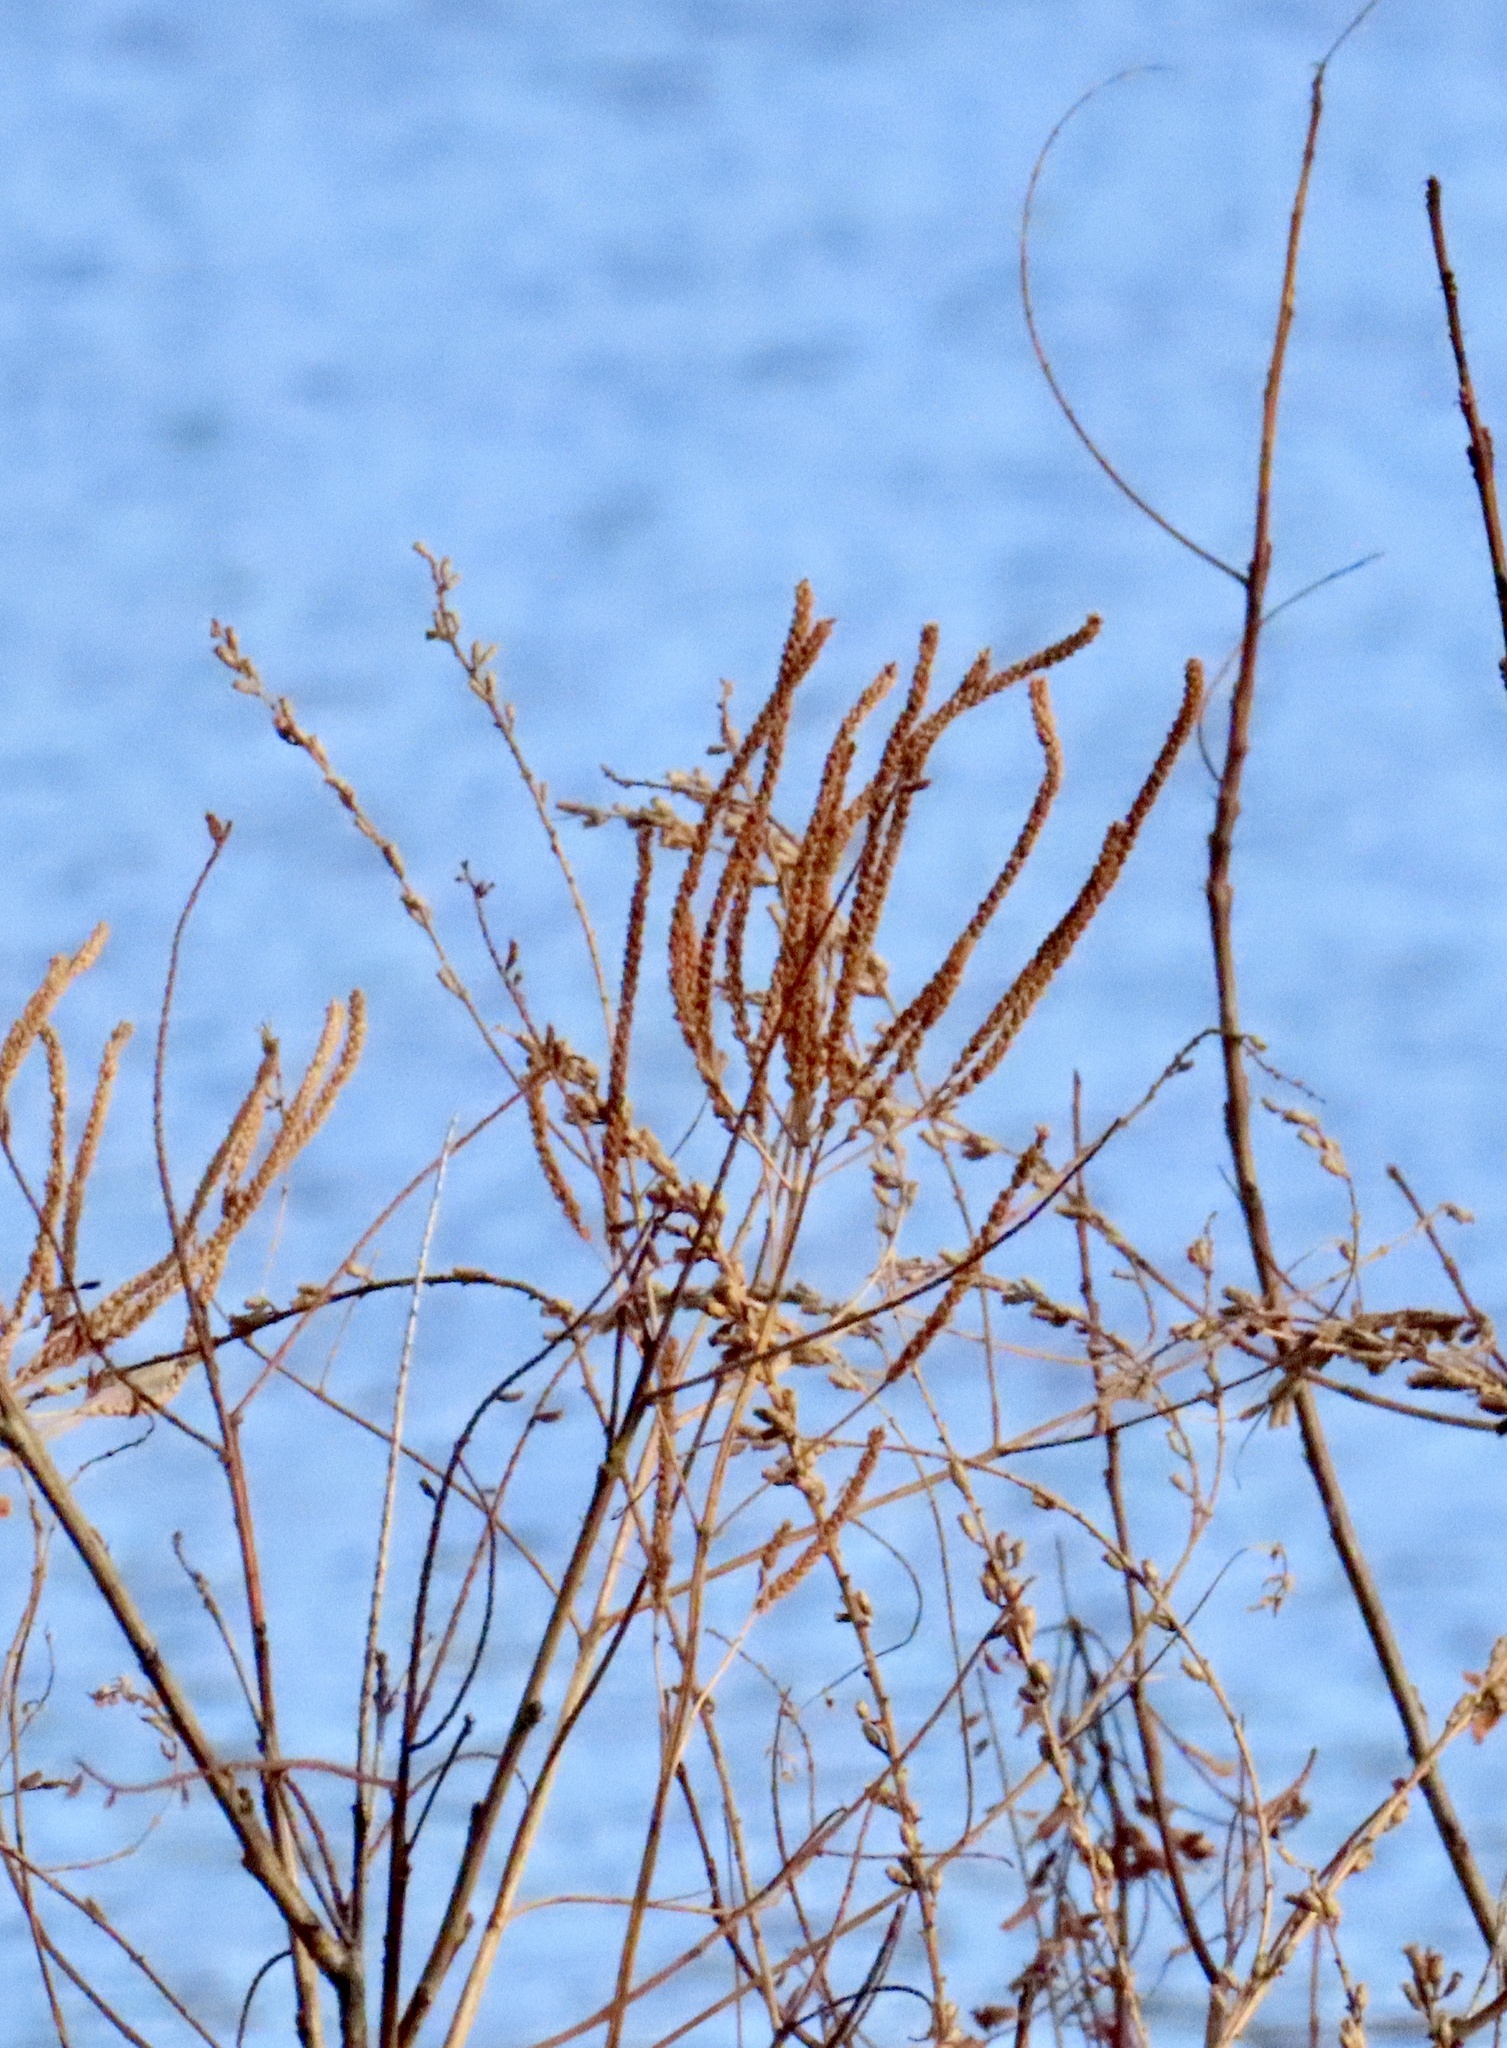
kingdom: Plantae
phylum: Tracheophyta
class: Magnoliopsida
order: Lamiales
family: Verbenaceae
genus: Verbena
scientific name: Verbena hastata
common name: American blue vervain
